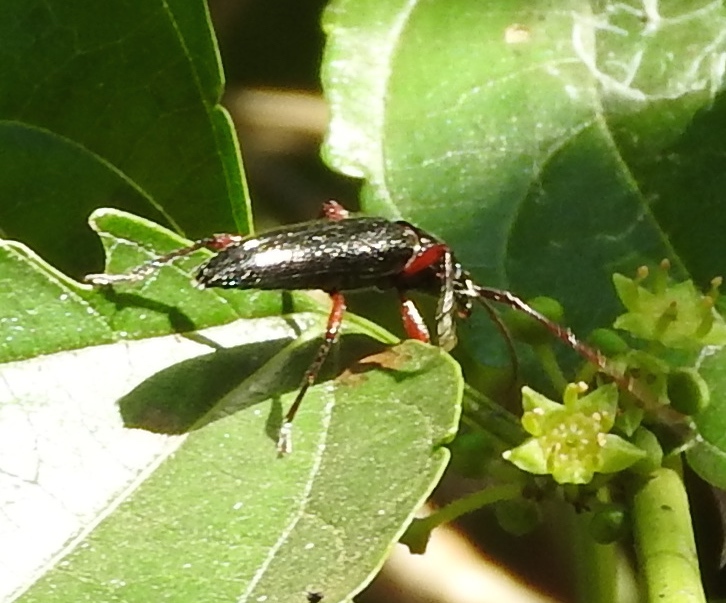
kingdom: Animalia
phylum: Arthropoda
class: Insecta
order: Coleoptera
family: Cerambycidae
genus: Stenosphenus
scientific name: Stenosphenus
